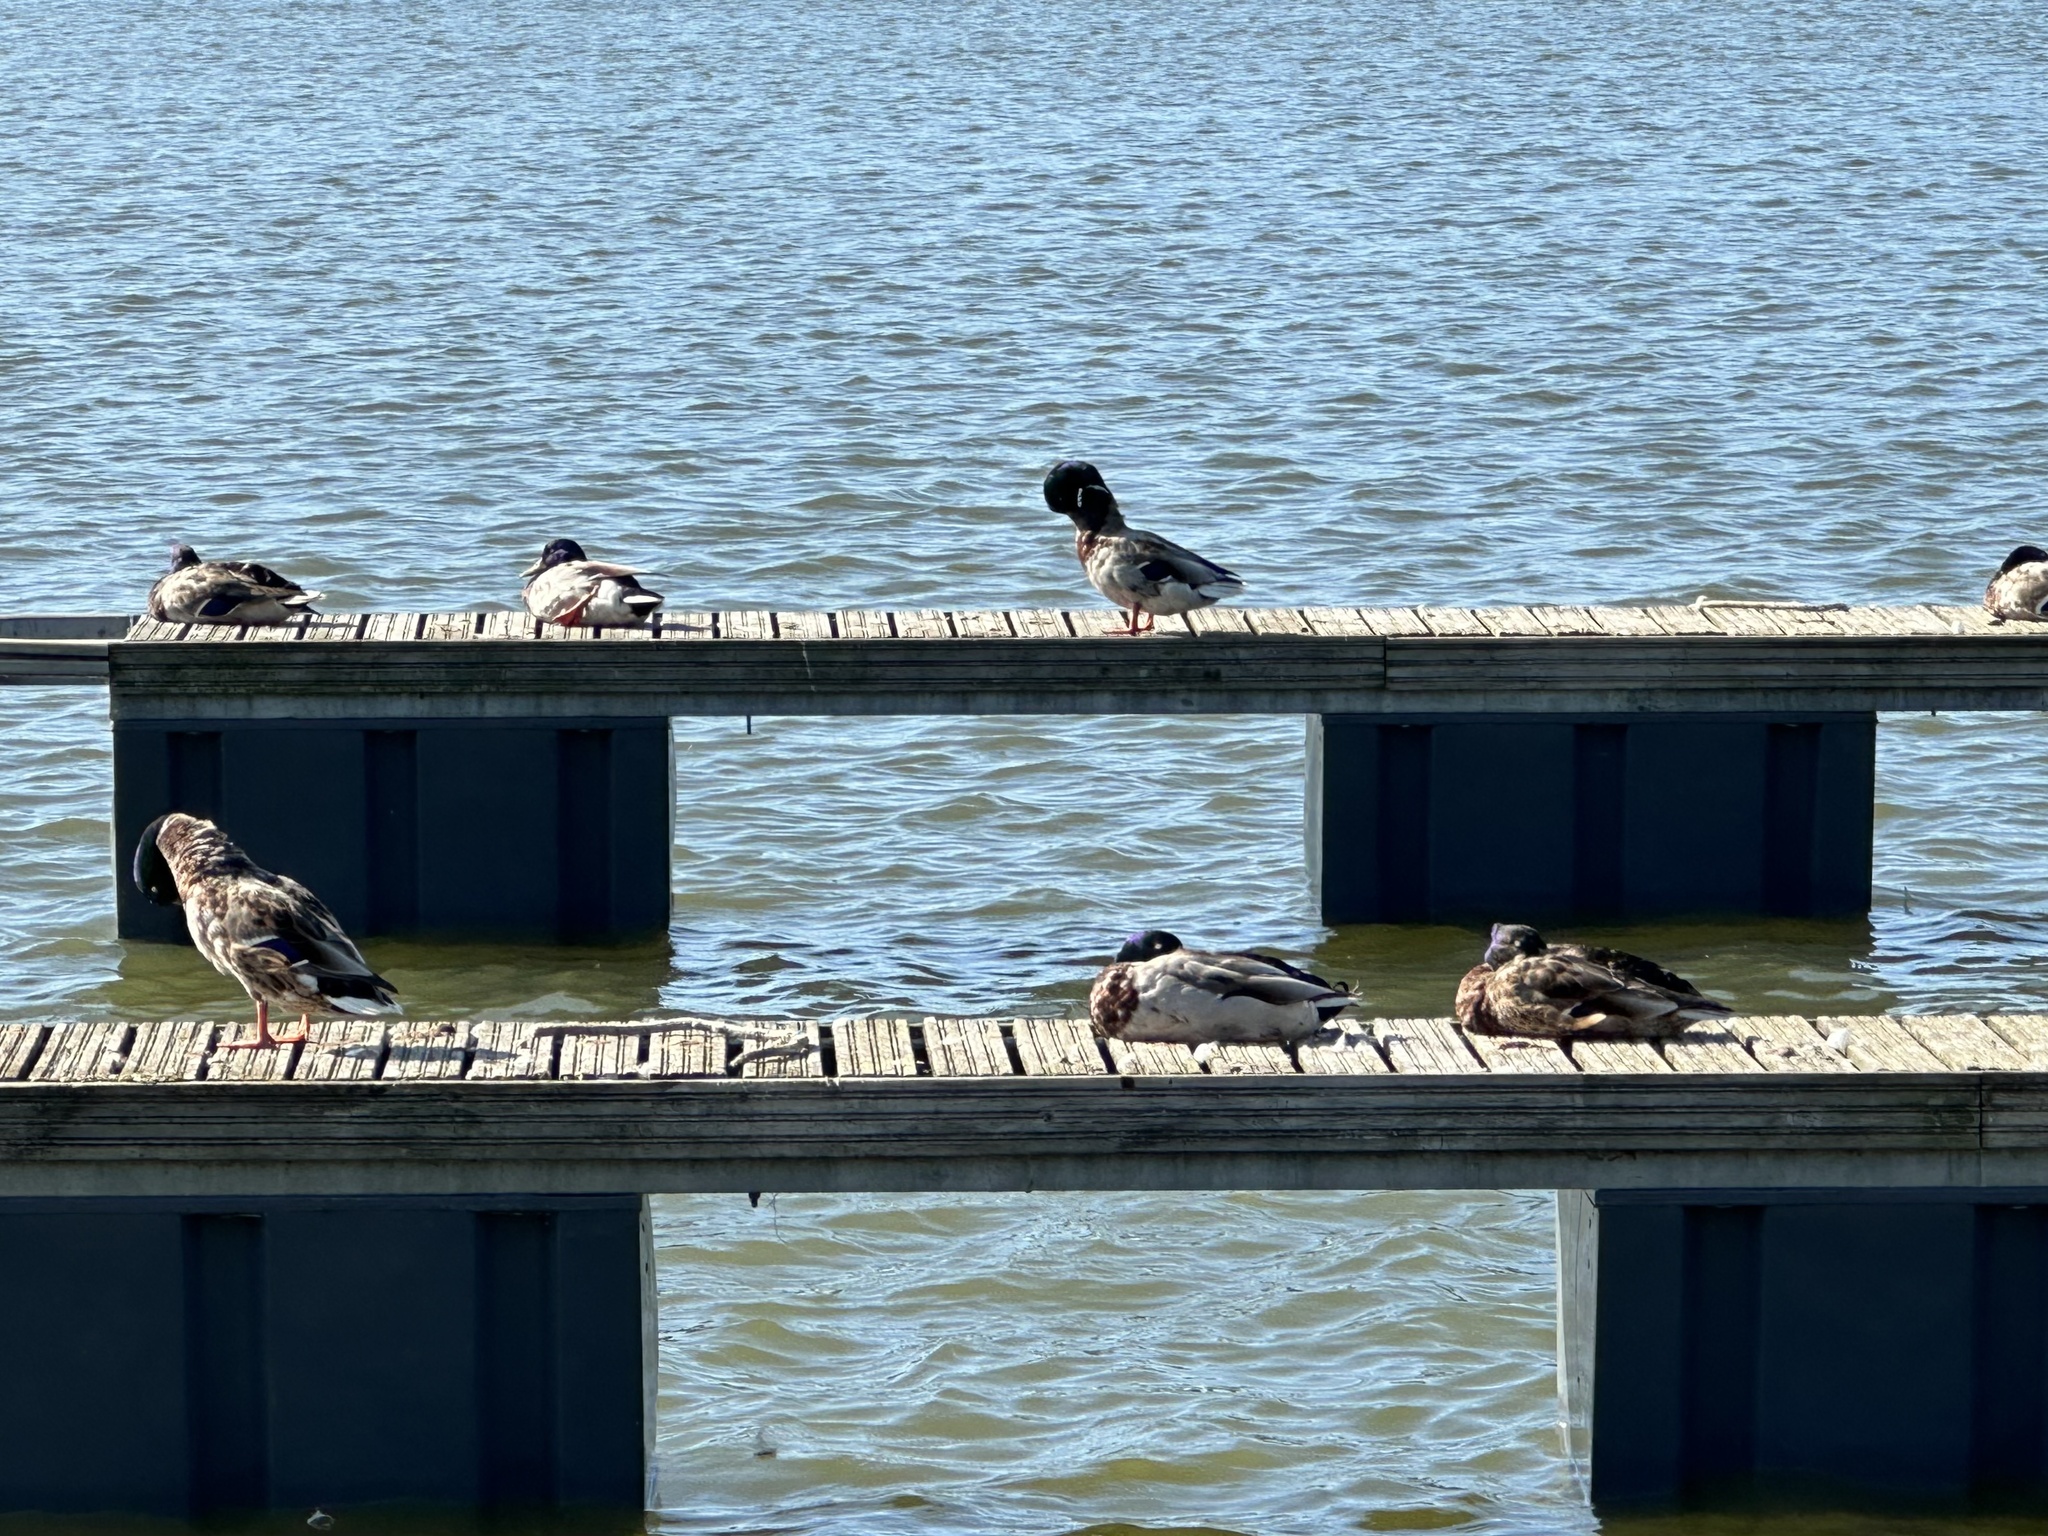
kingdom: Animalia
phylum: Chordata
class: Aves
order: Anseriformes
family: Anatidae
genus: Anas
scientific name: Anas platyrhynchos
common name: Mallard
